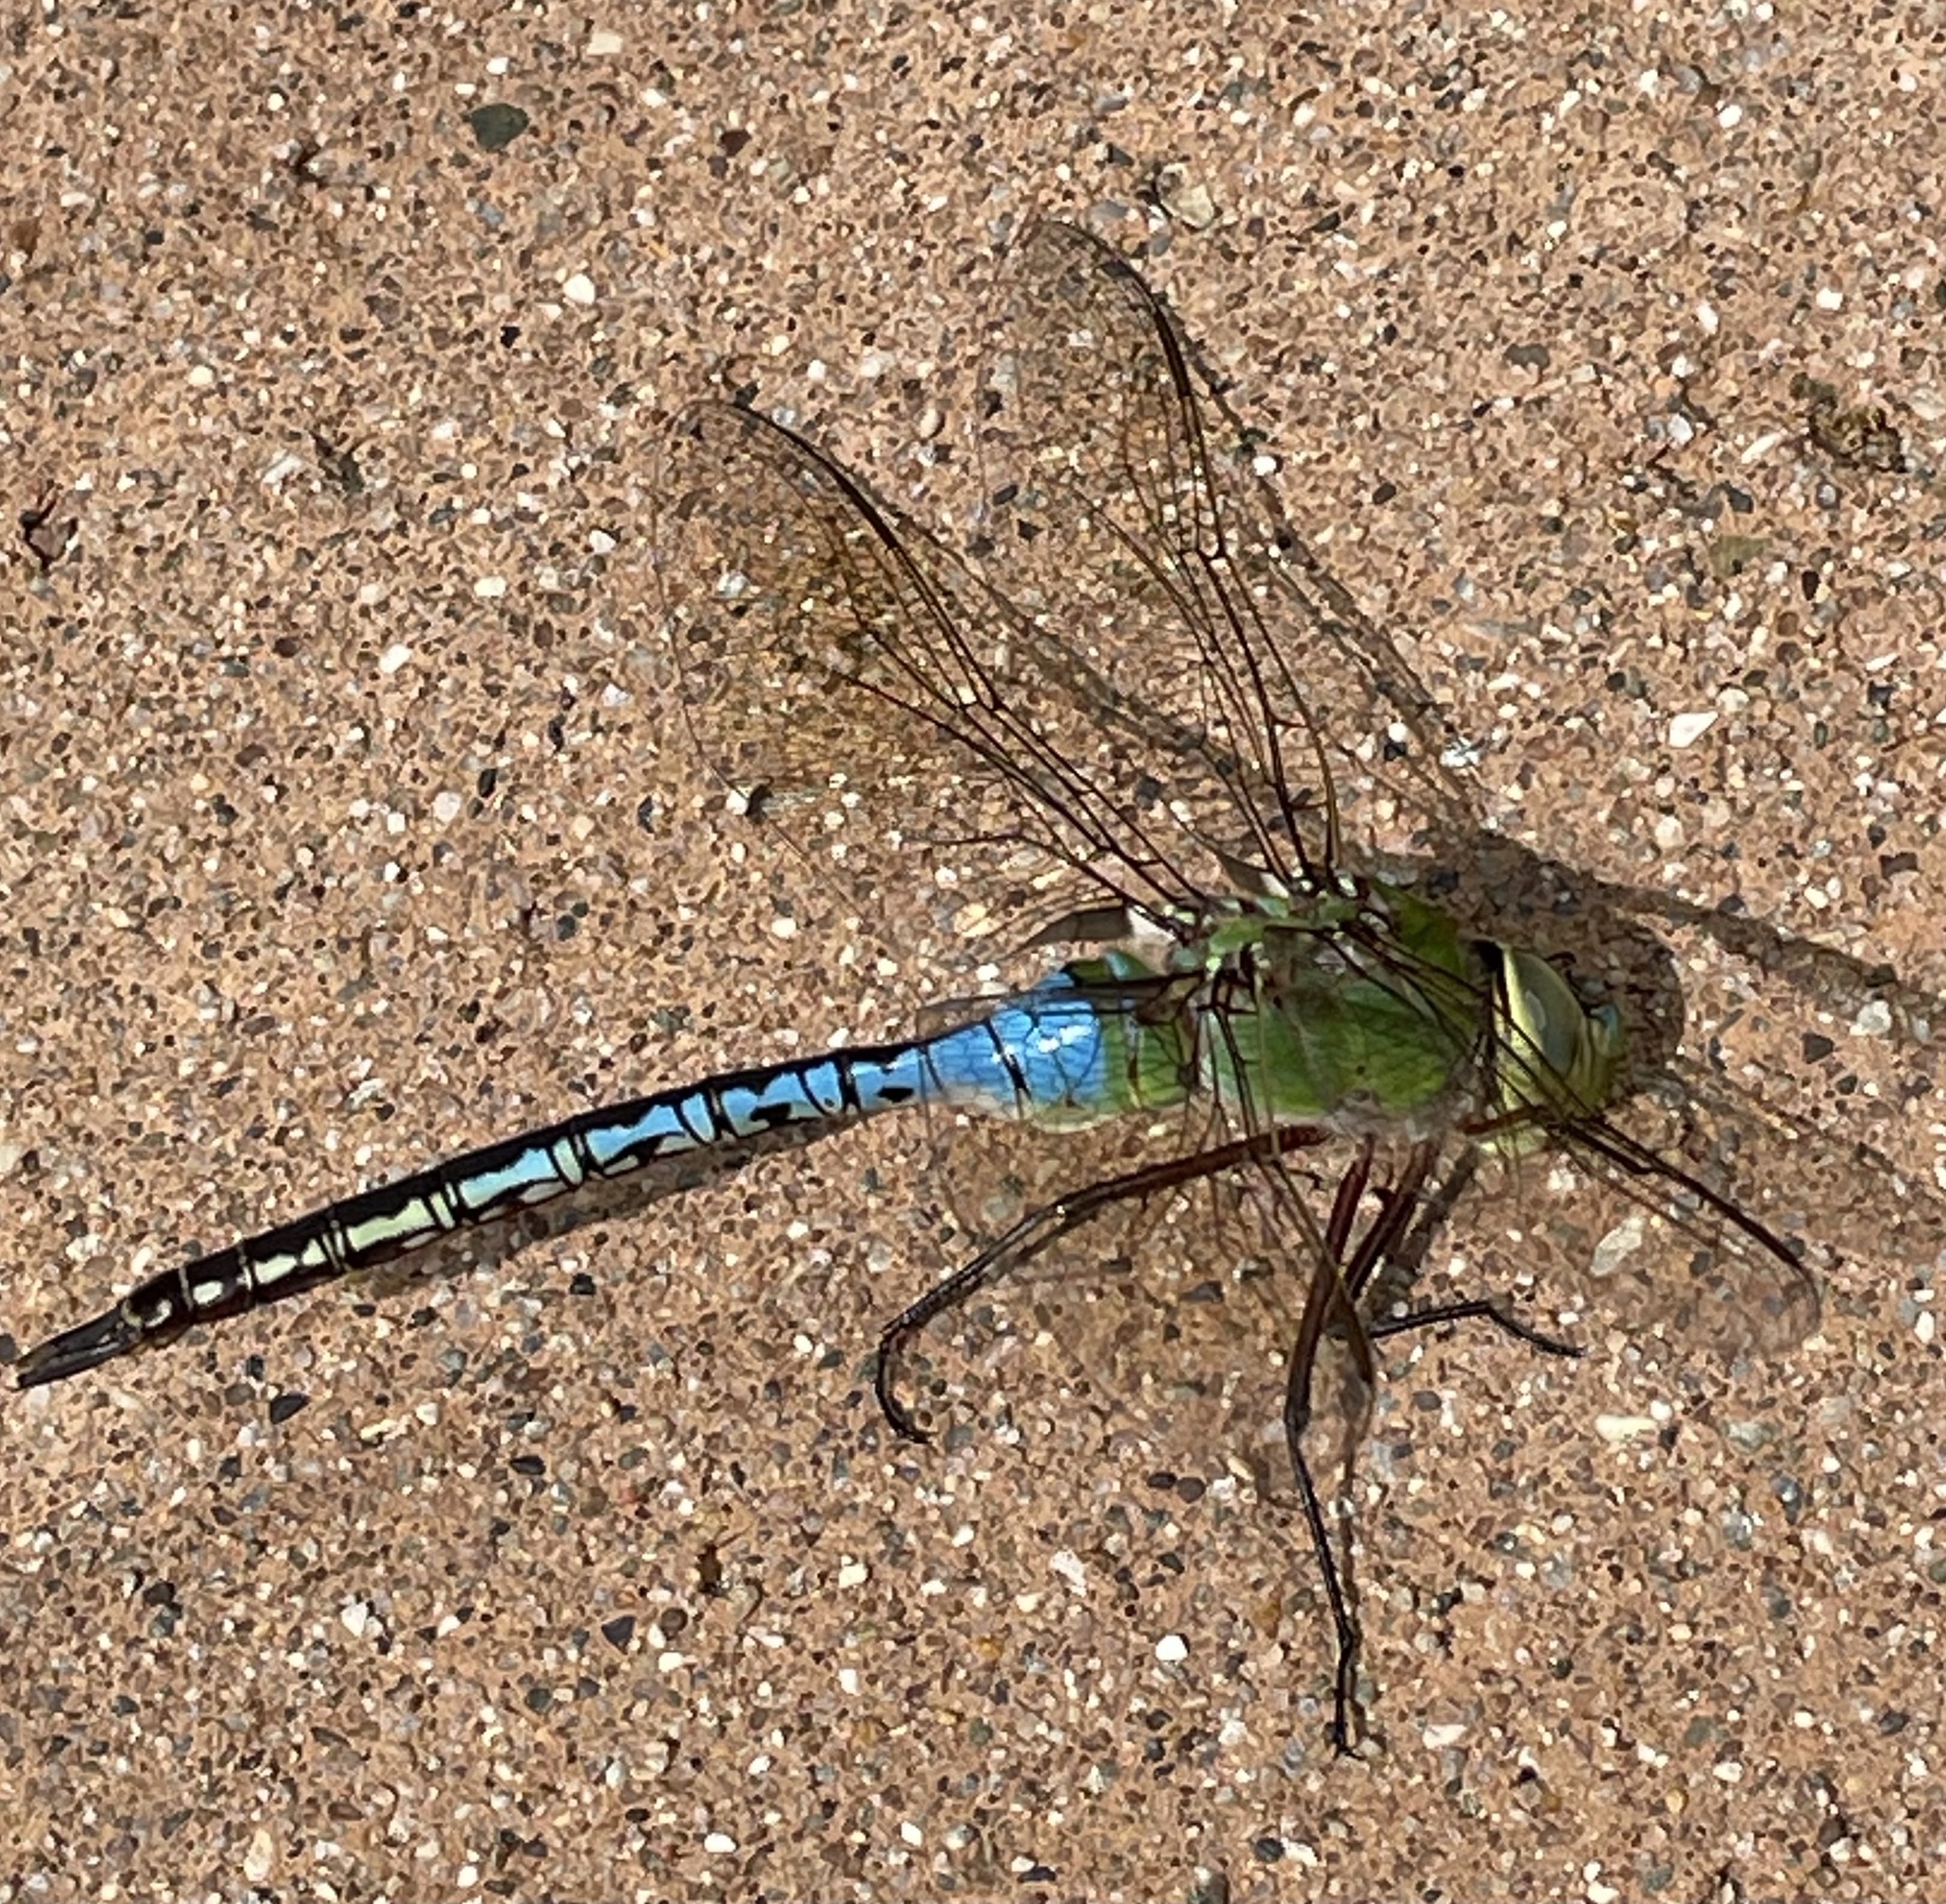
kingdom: Animalia
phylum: Arthropoda
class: Insecta
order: Odonata
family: Aeshnidae
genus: Anax
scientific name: Anax junius
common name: Common green darner
